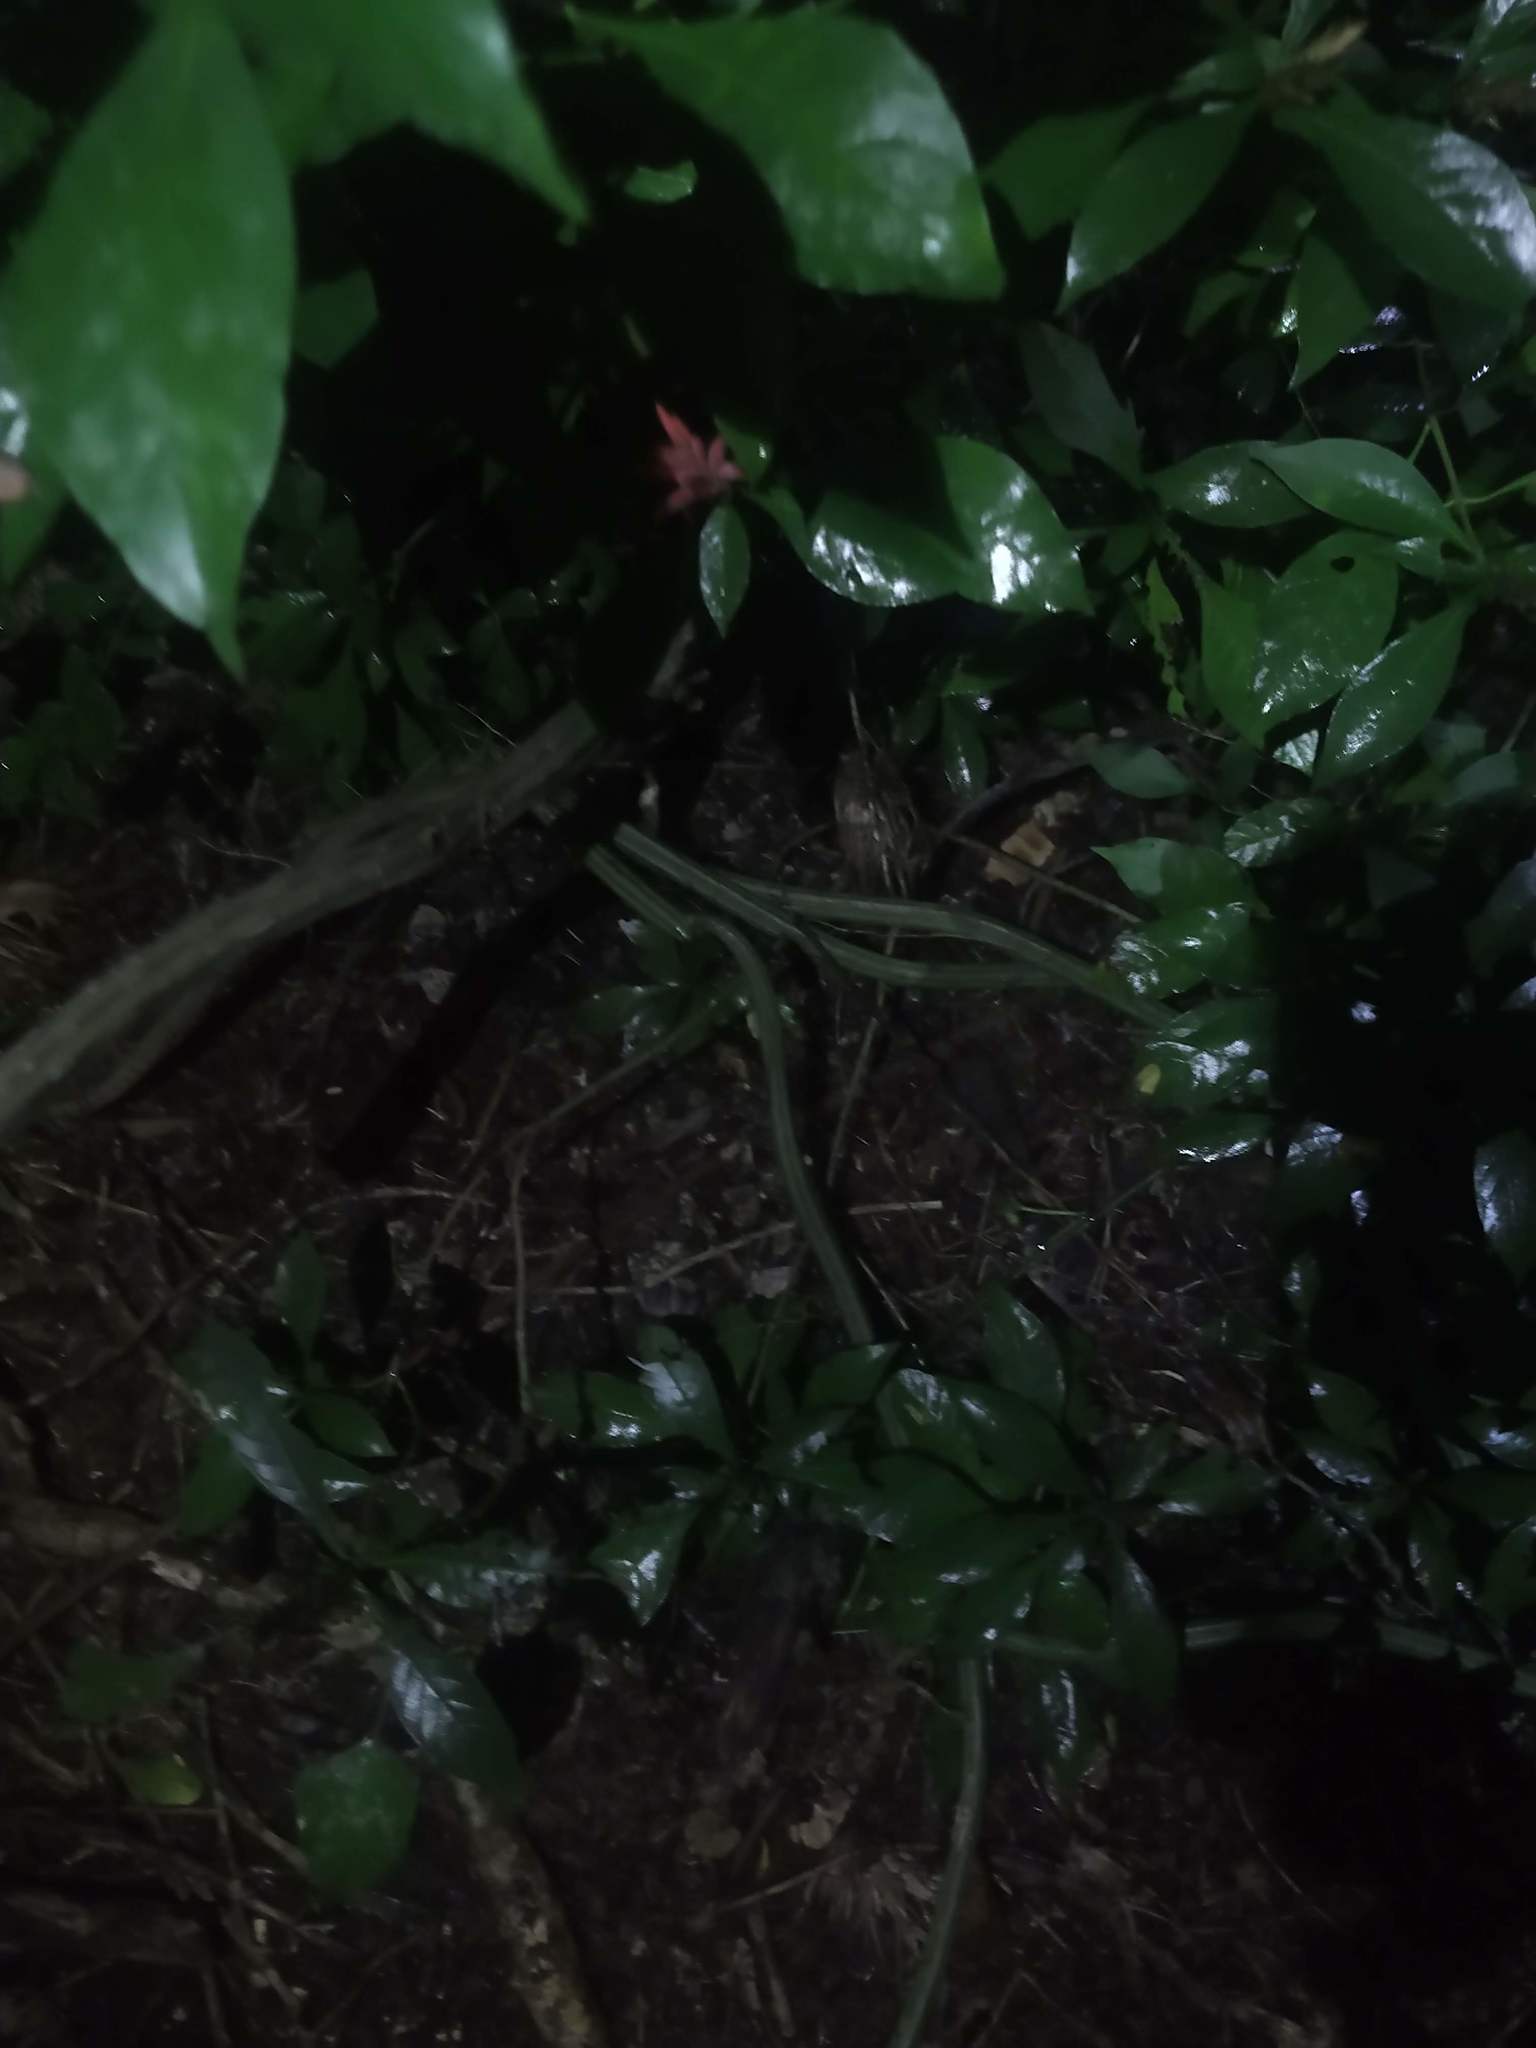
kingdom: Plantae
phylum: Tracheophyta
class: Magnoliopsida
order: Caryophyllales
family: Cactaceae
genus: Selenicereus
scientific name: Selenicereus grandiflorus
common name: Queen of the night
